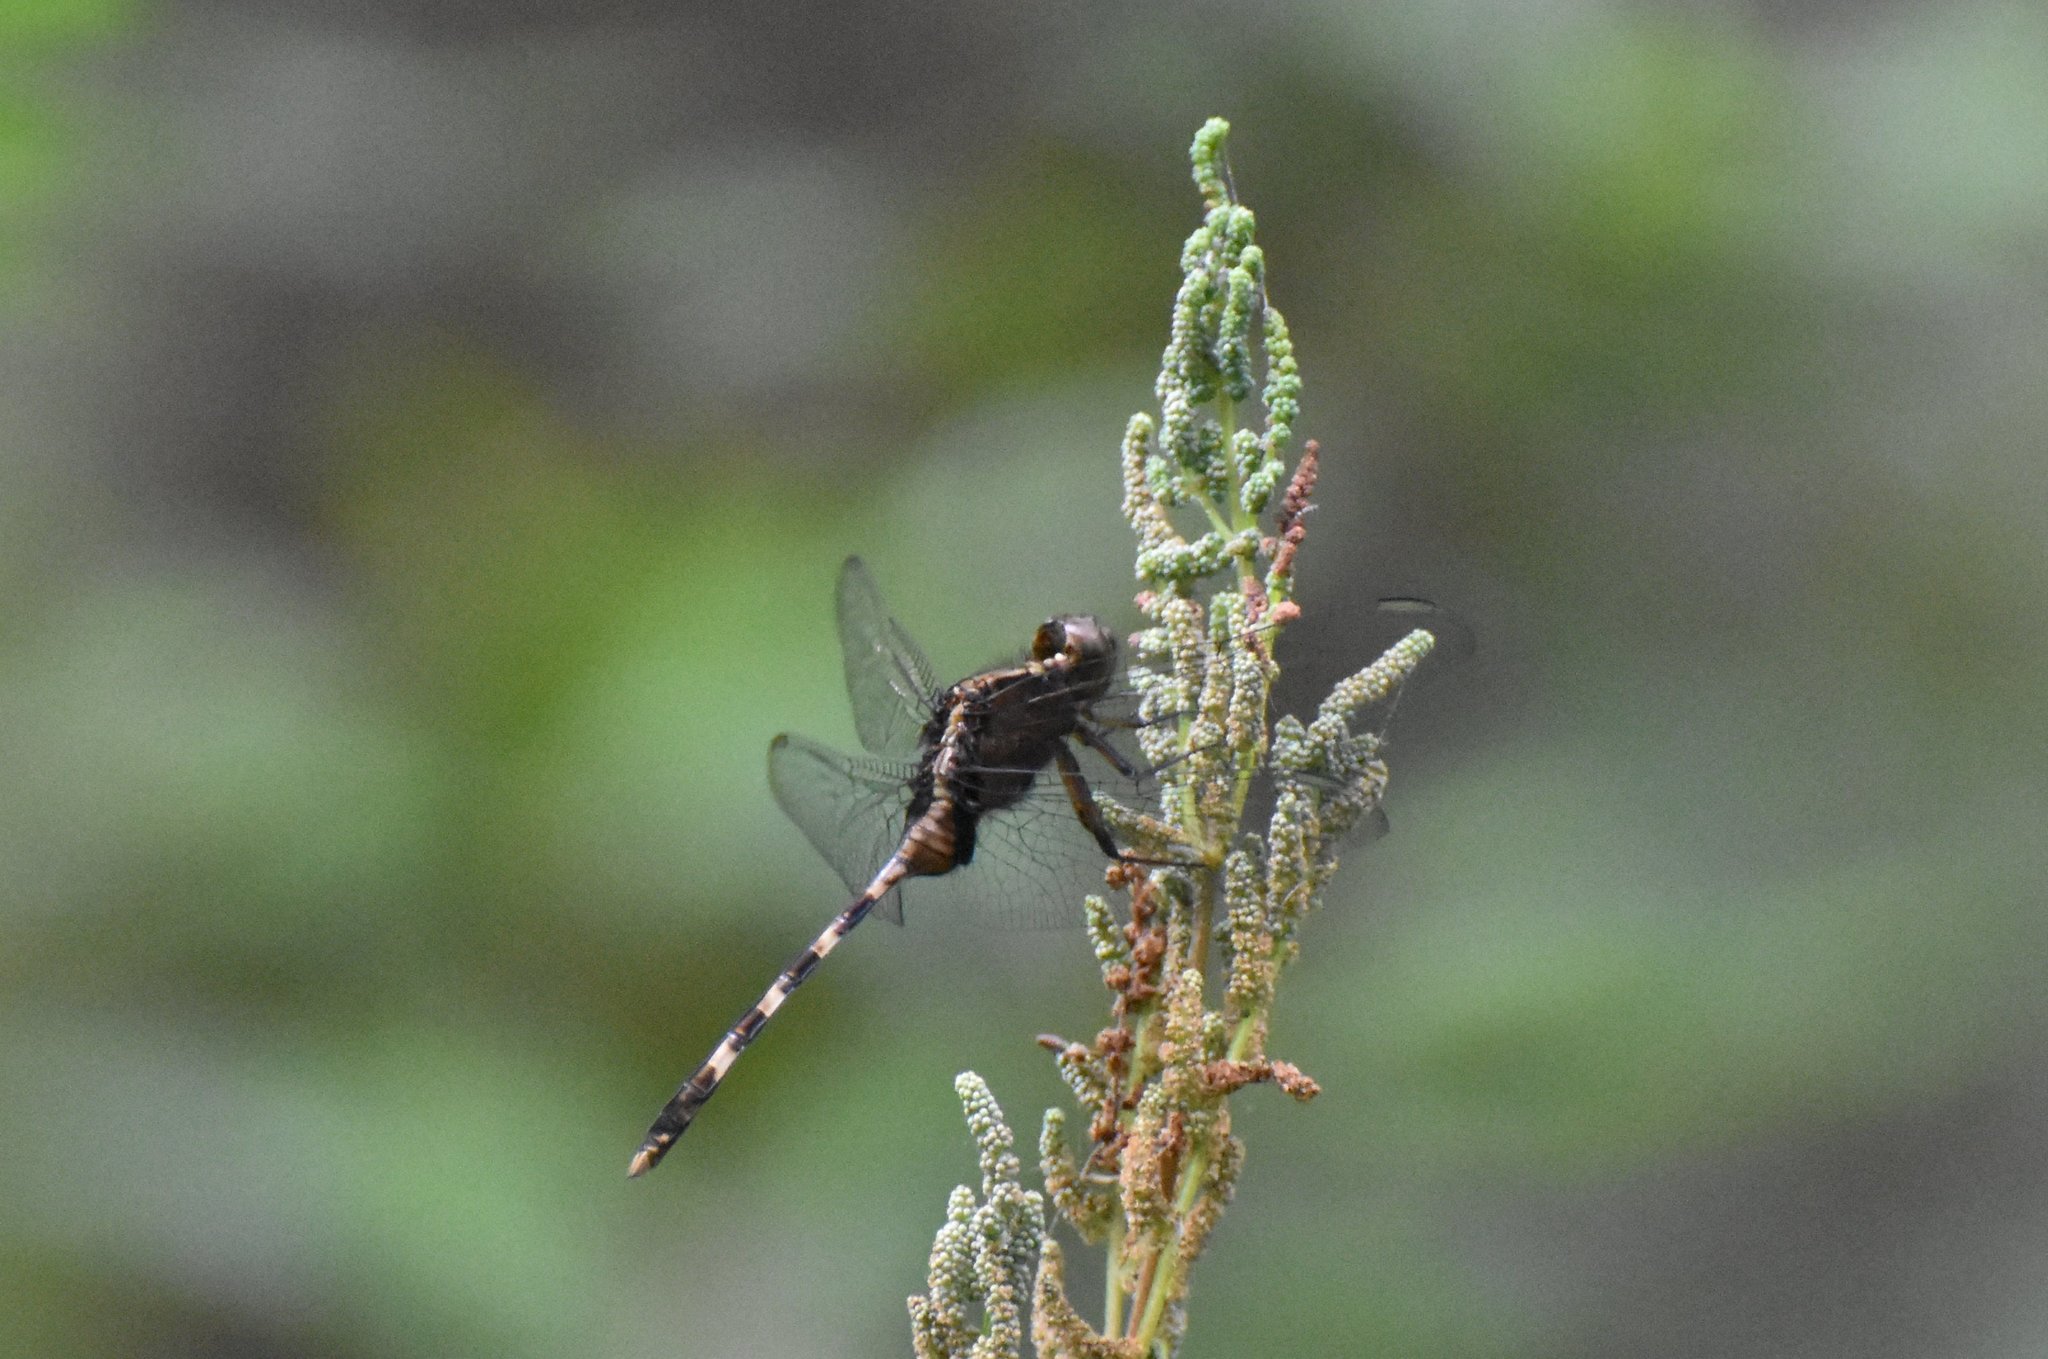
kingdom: Animalia
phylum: Arthropoda
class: Insecta
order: Odonata
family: Libellulidae
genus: Erythemis
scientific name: Erythemis plebeja
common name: Pin-tailed pondhawk
